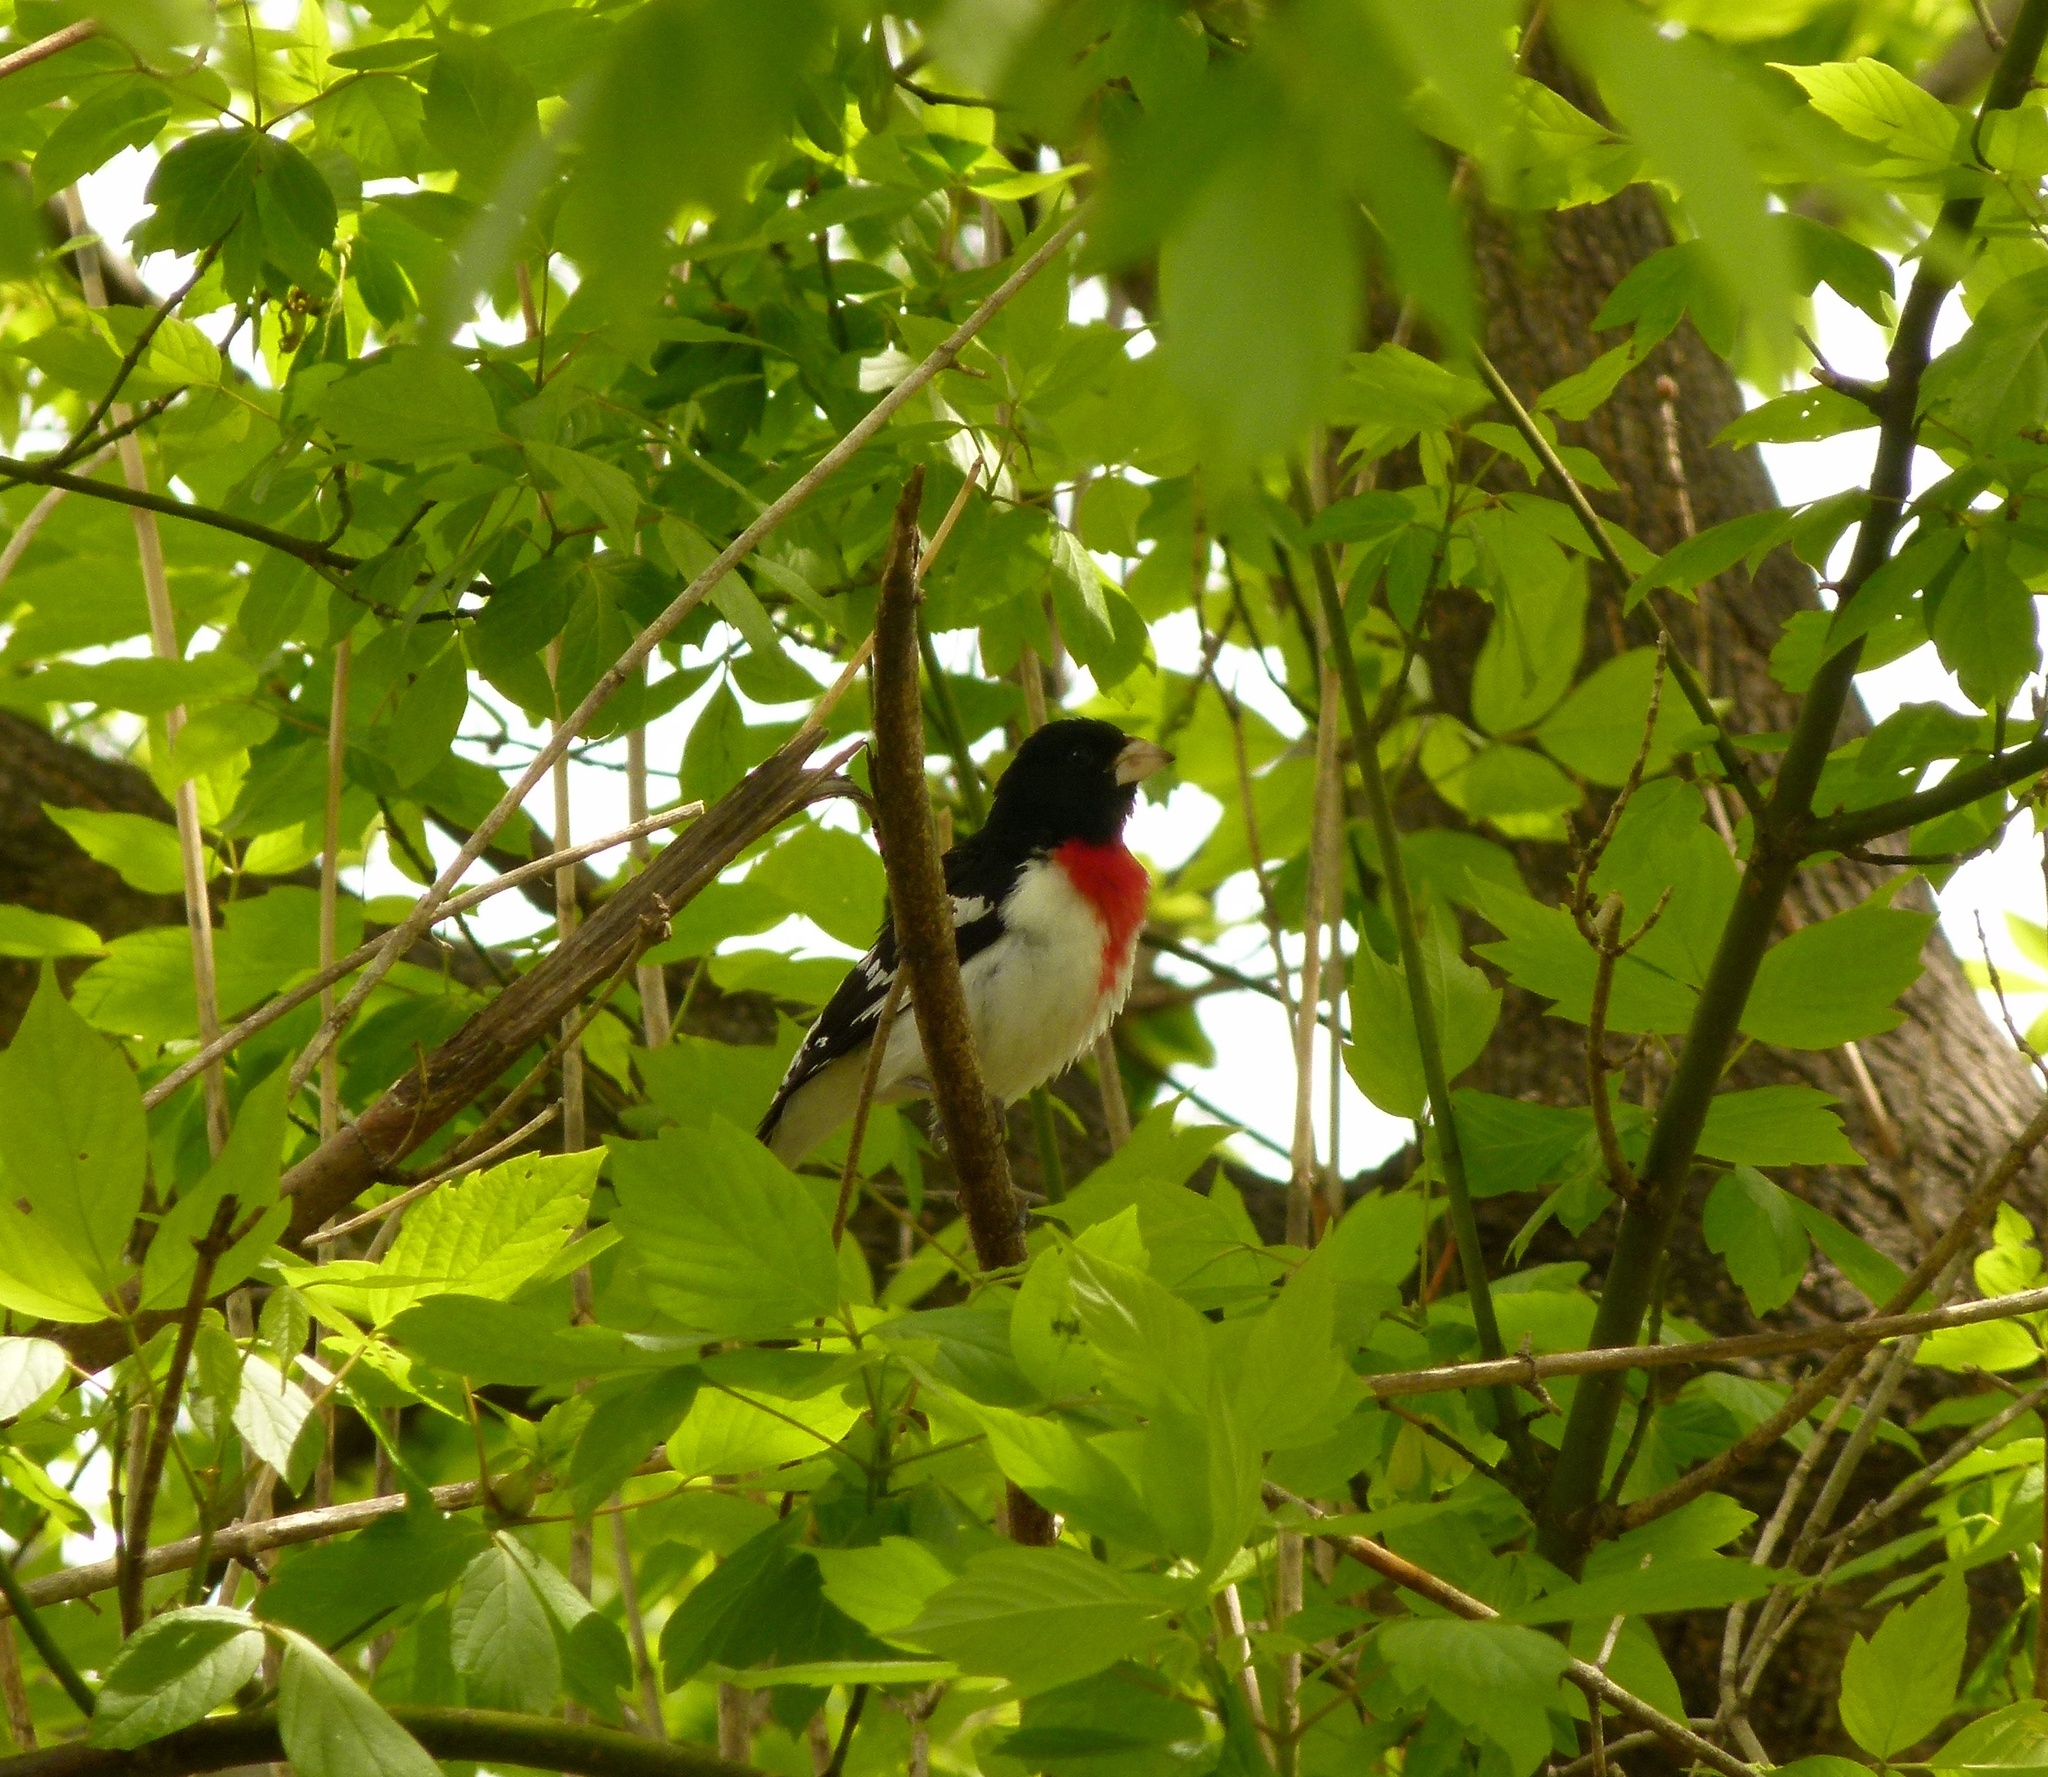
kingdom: Animalia
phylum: Chordata
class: Aves
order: Passeriformes
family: Cardinalidae
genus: Pheucticus
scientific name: Pheucticus ludovicianus
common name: Rose-breasted grosbeak
